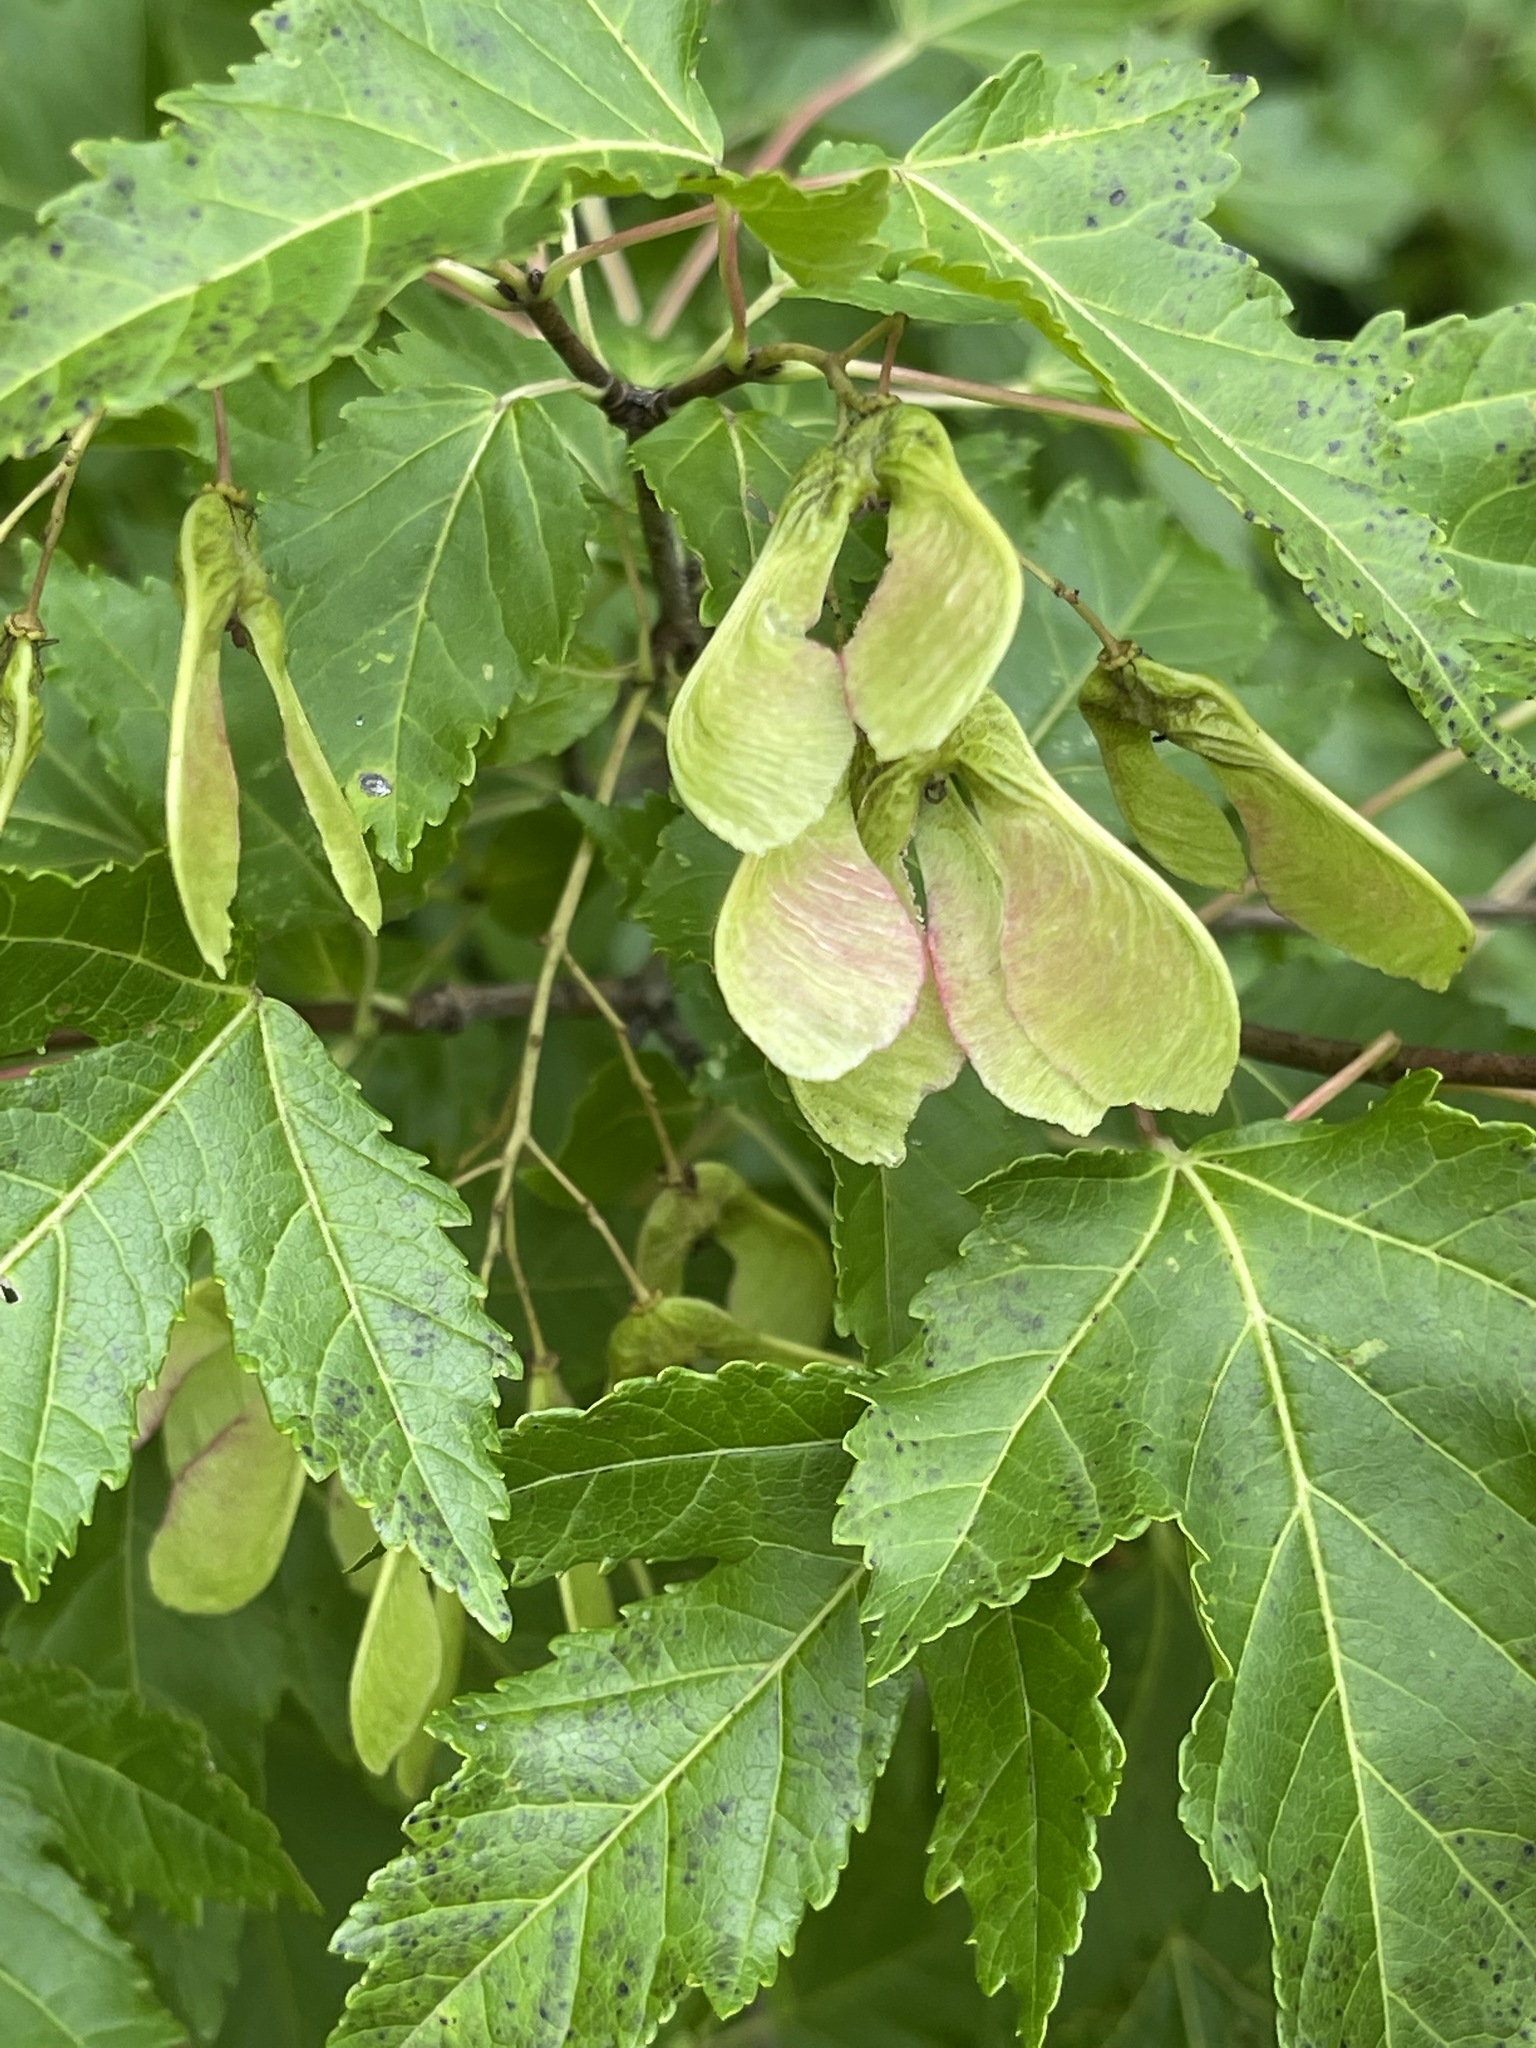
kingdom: Plantae
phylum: Tracheophyta
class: Magnoliopsida
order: Sapindales
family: Sapindaceae
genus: Acer
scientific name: Acer tataricum
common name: Tartar maple
